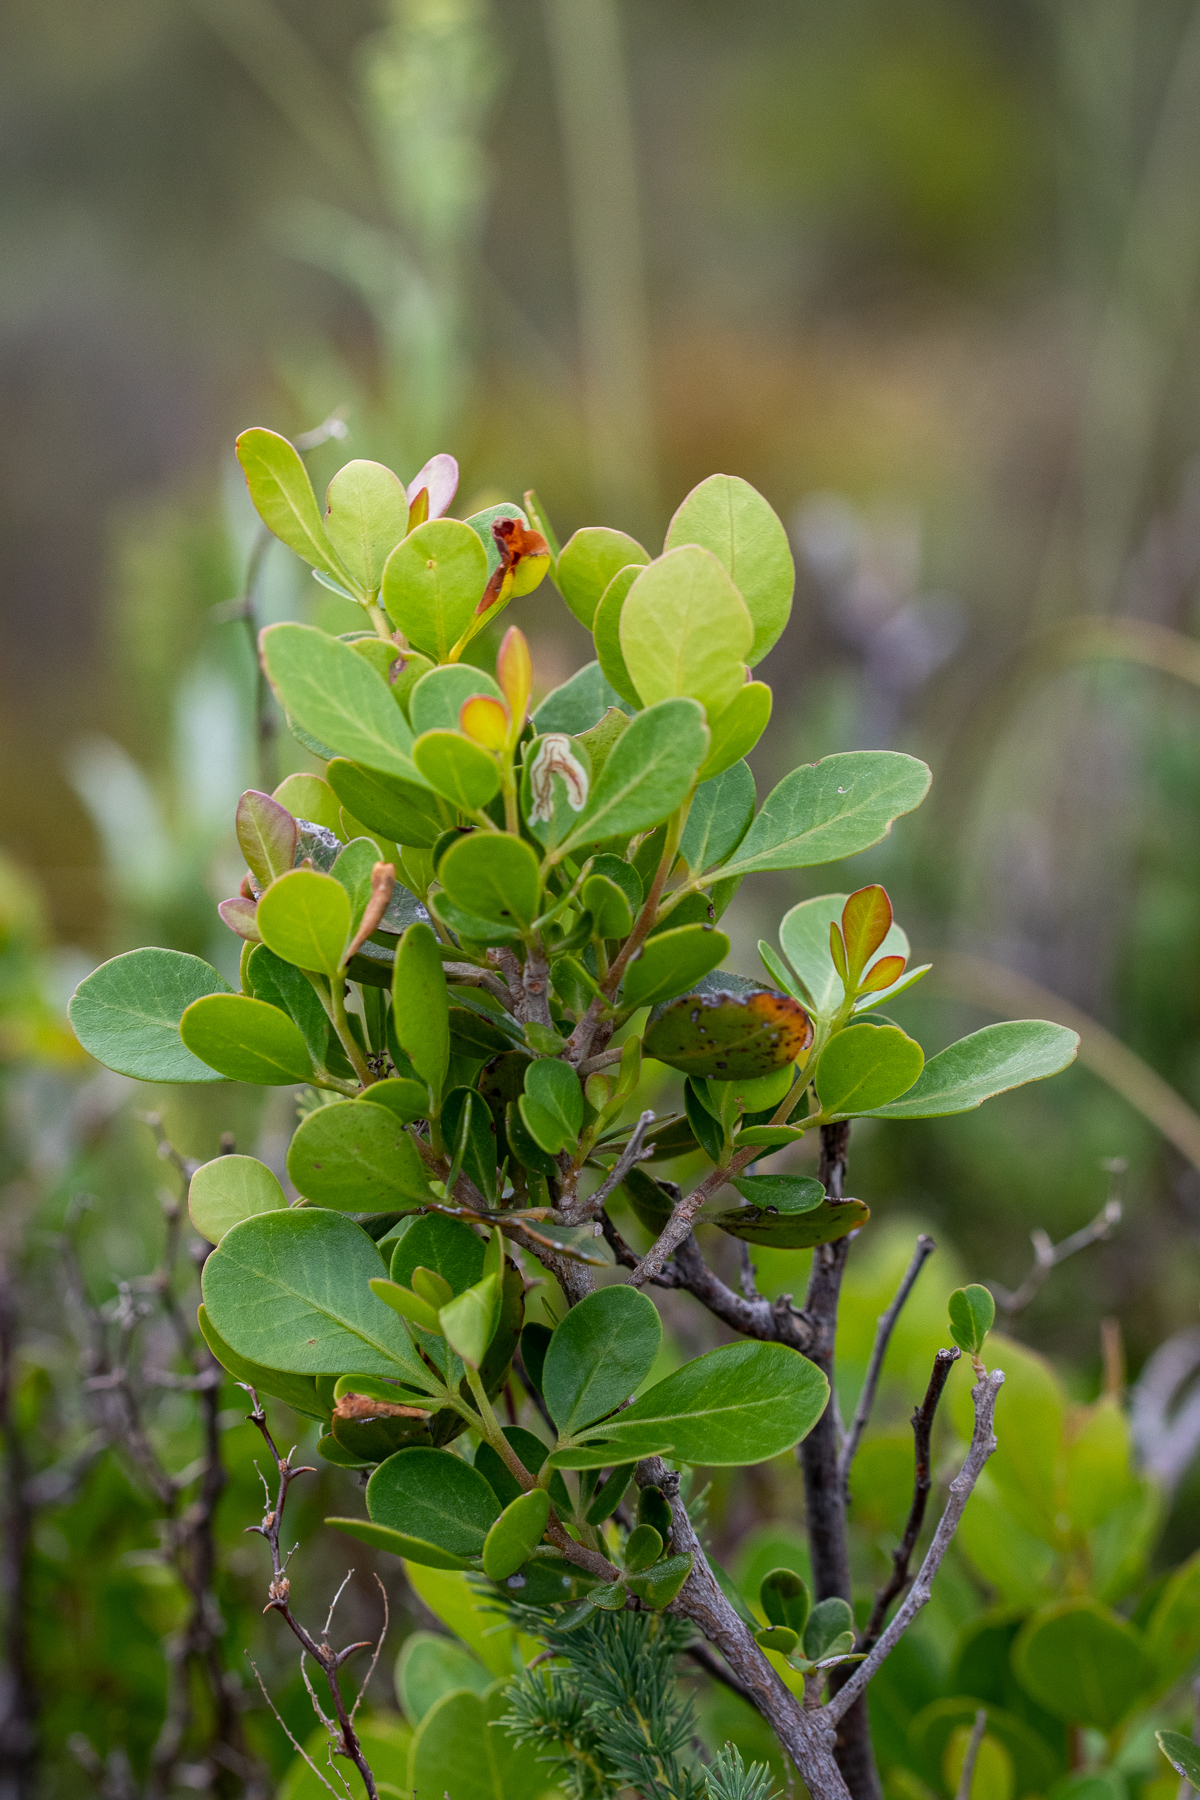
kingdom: Plantae
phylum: Tracheophyta
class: Magnoliopsida
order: Sapindales
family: Anacardiaceae
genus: Searsia
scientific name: Searsia lucida
